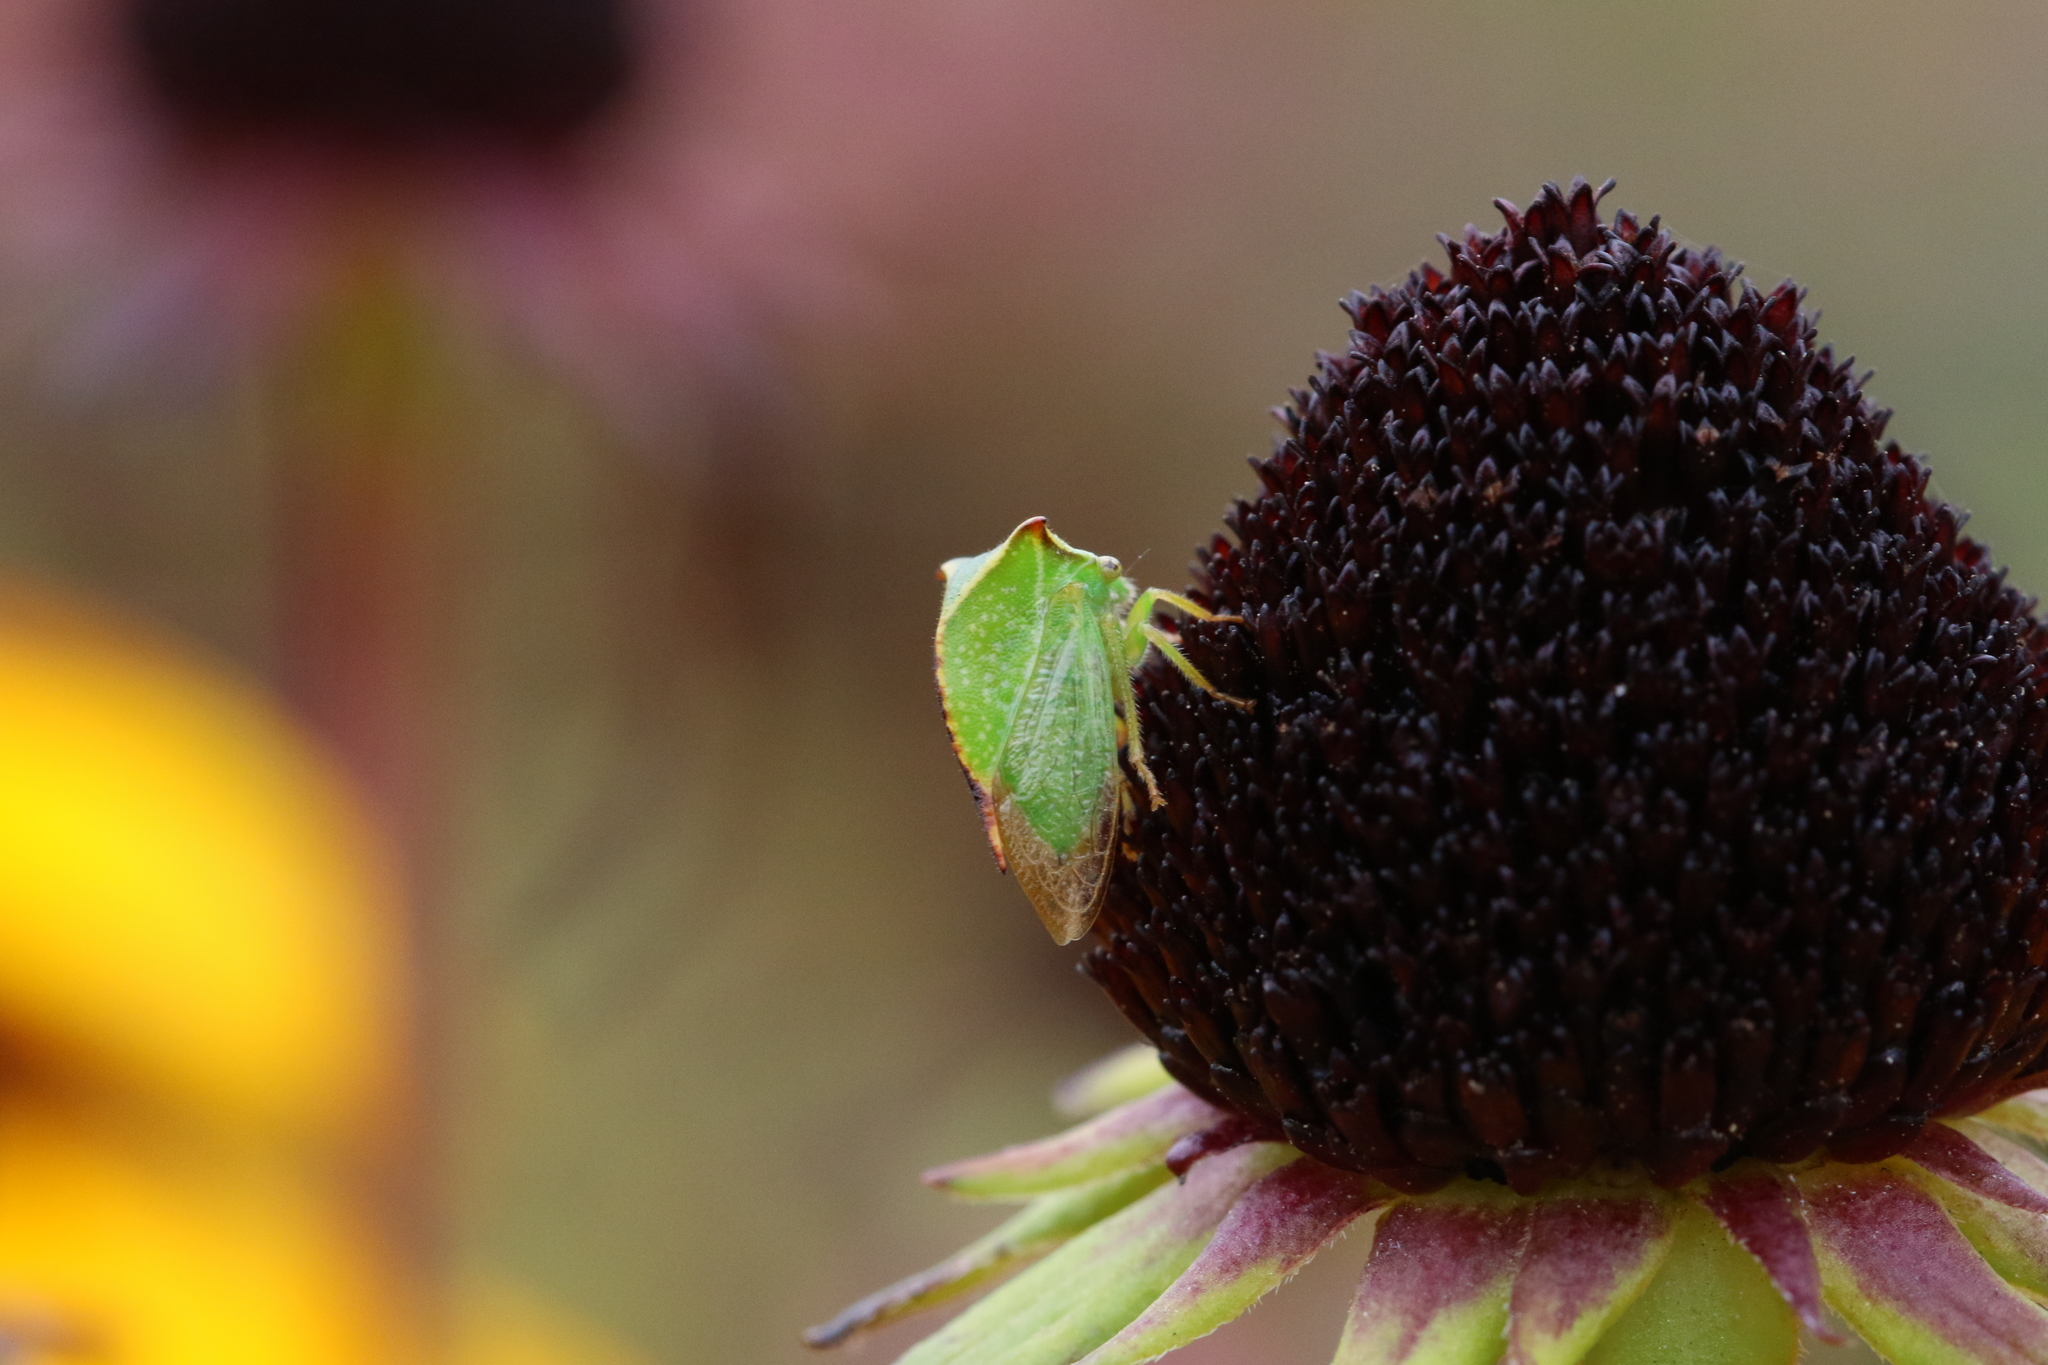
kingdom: Animalia
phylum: Arthropoda
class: Insecta
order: Hemiptera
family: Membracidae
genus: Stictocephala
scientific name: Stictocephala bisonia
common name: American buffalo treehopper
